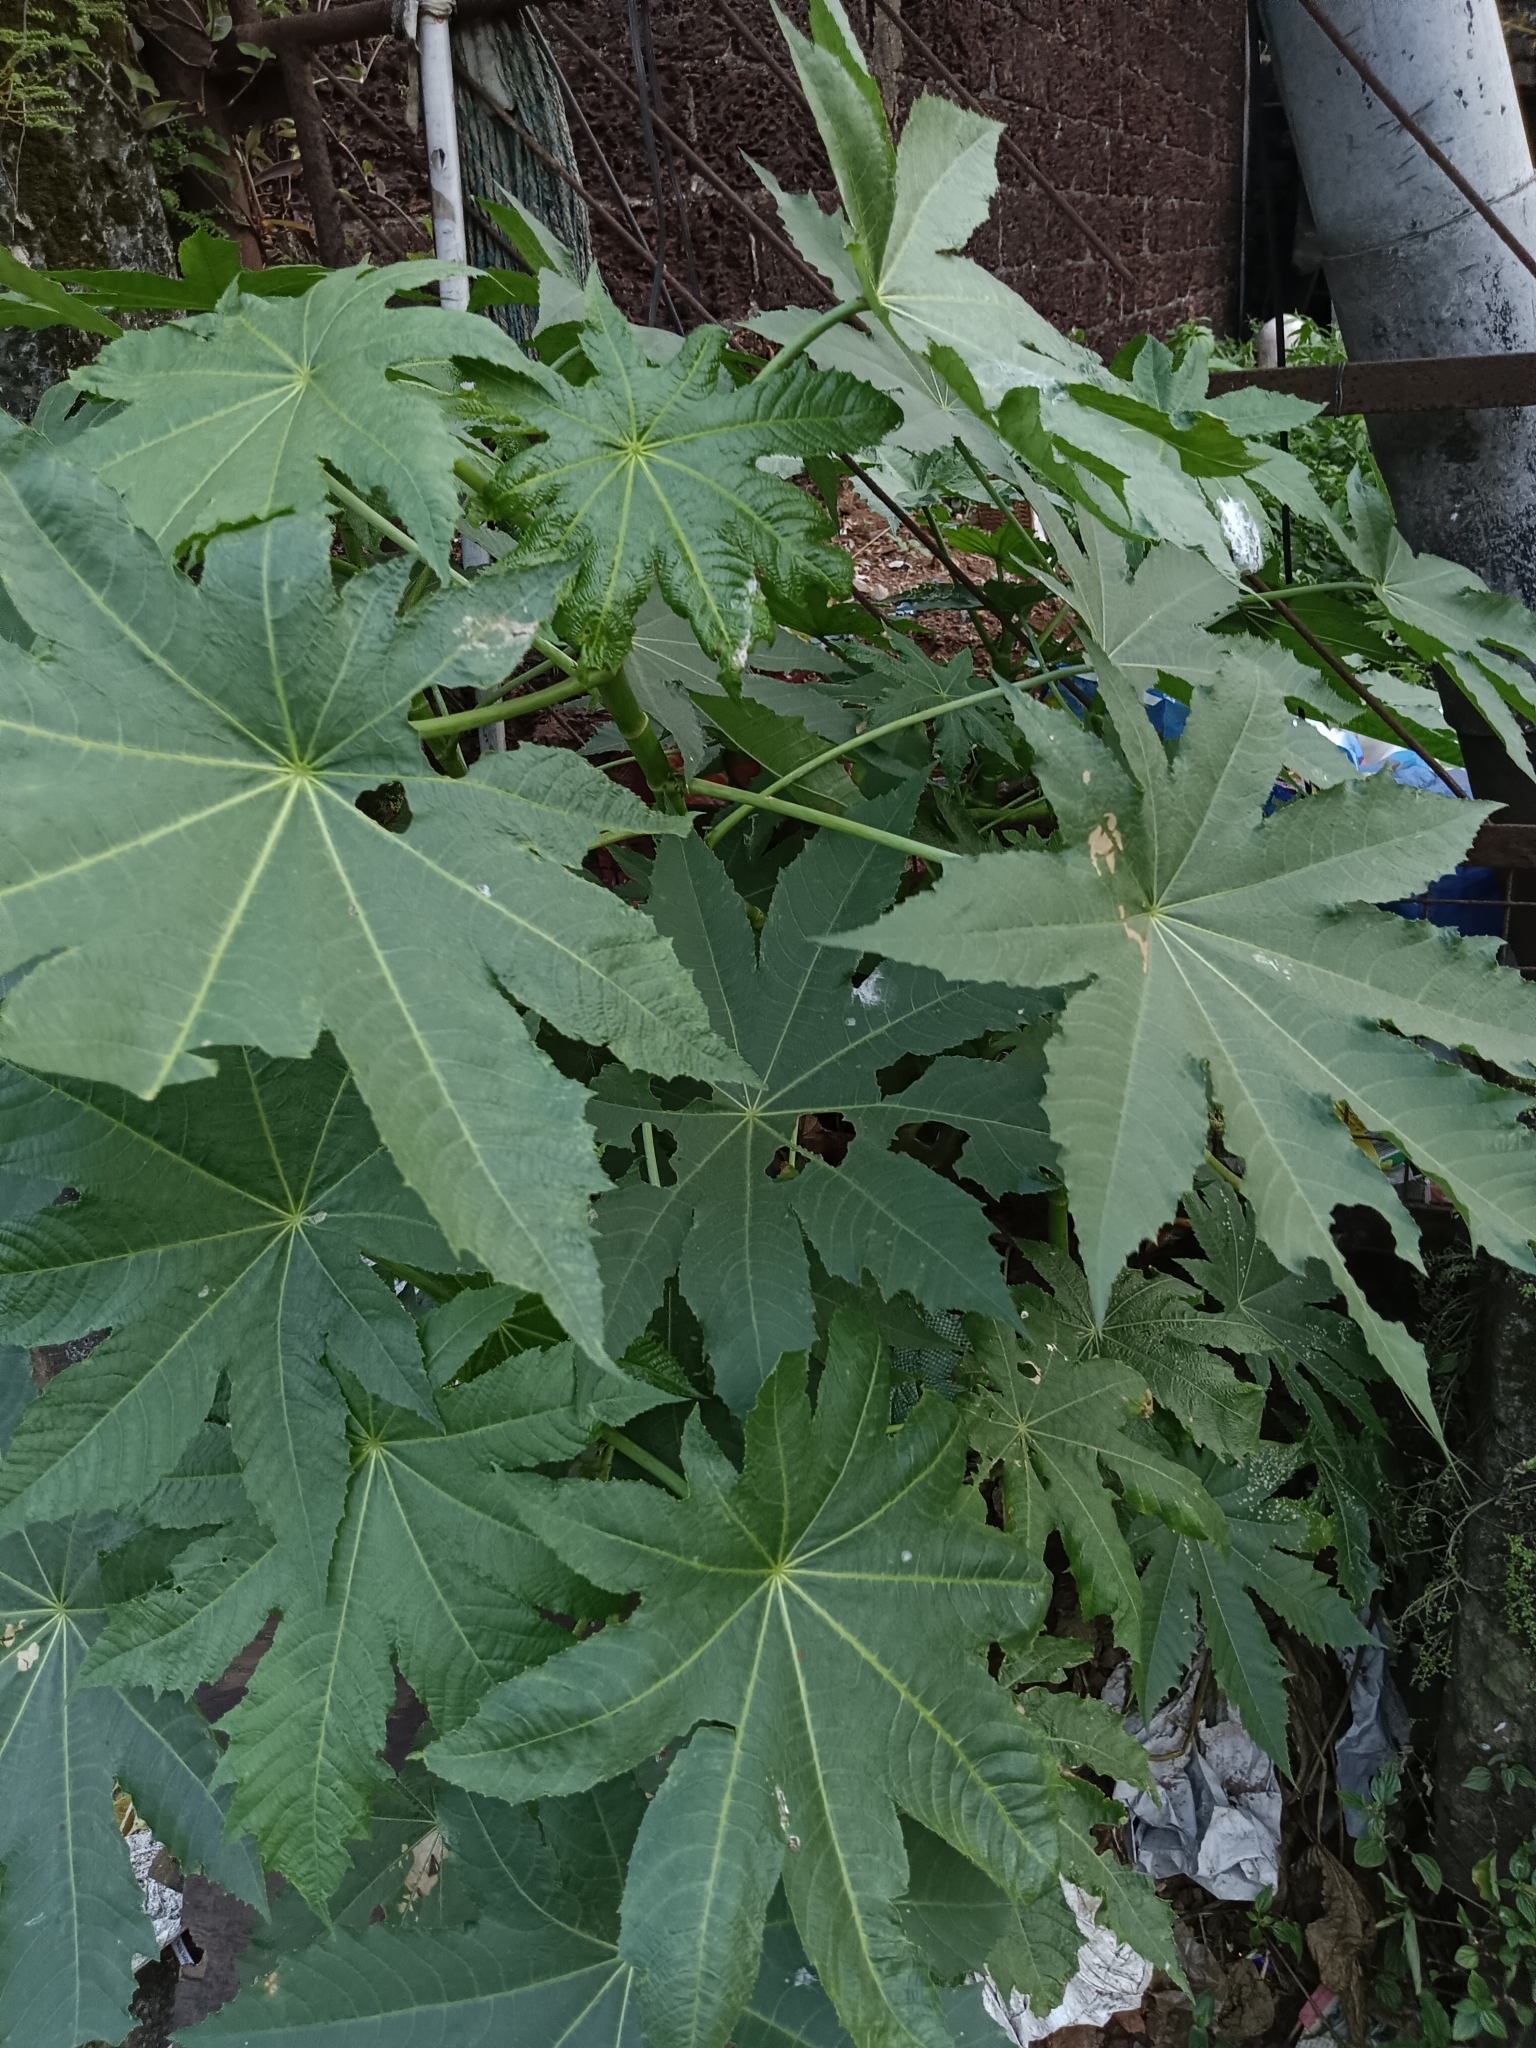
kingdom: Plantae
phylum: Tracheophyta
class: Magnoliopsida
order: Malpighiales
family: Euphorbiaceae
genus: Ricinus
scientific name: Ricinus communis
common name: Castor-oil-plant
